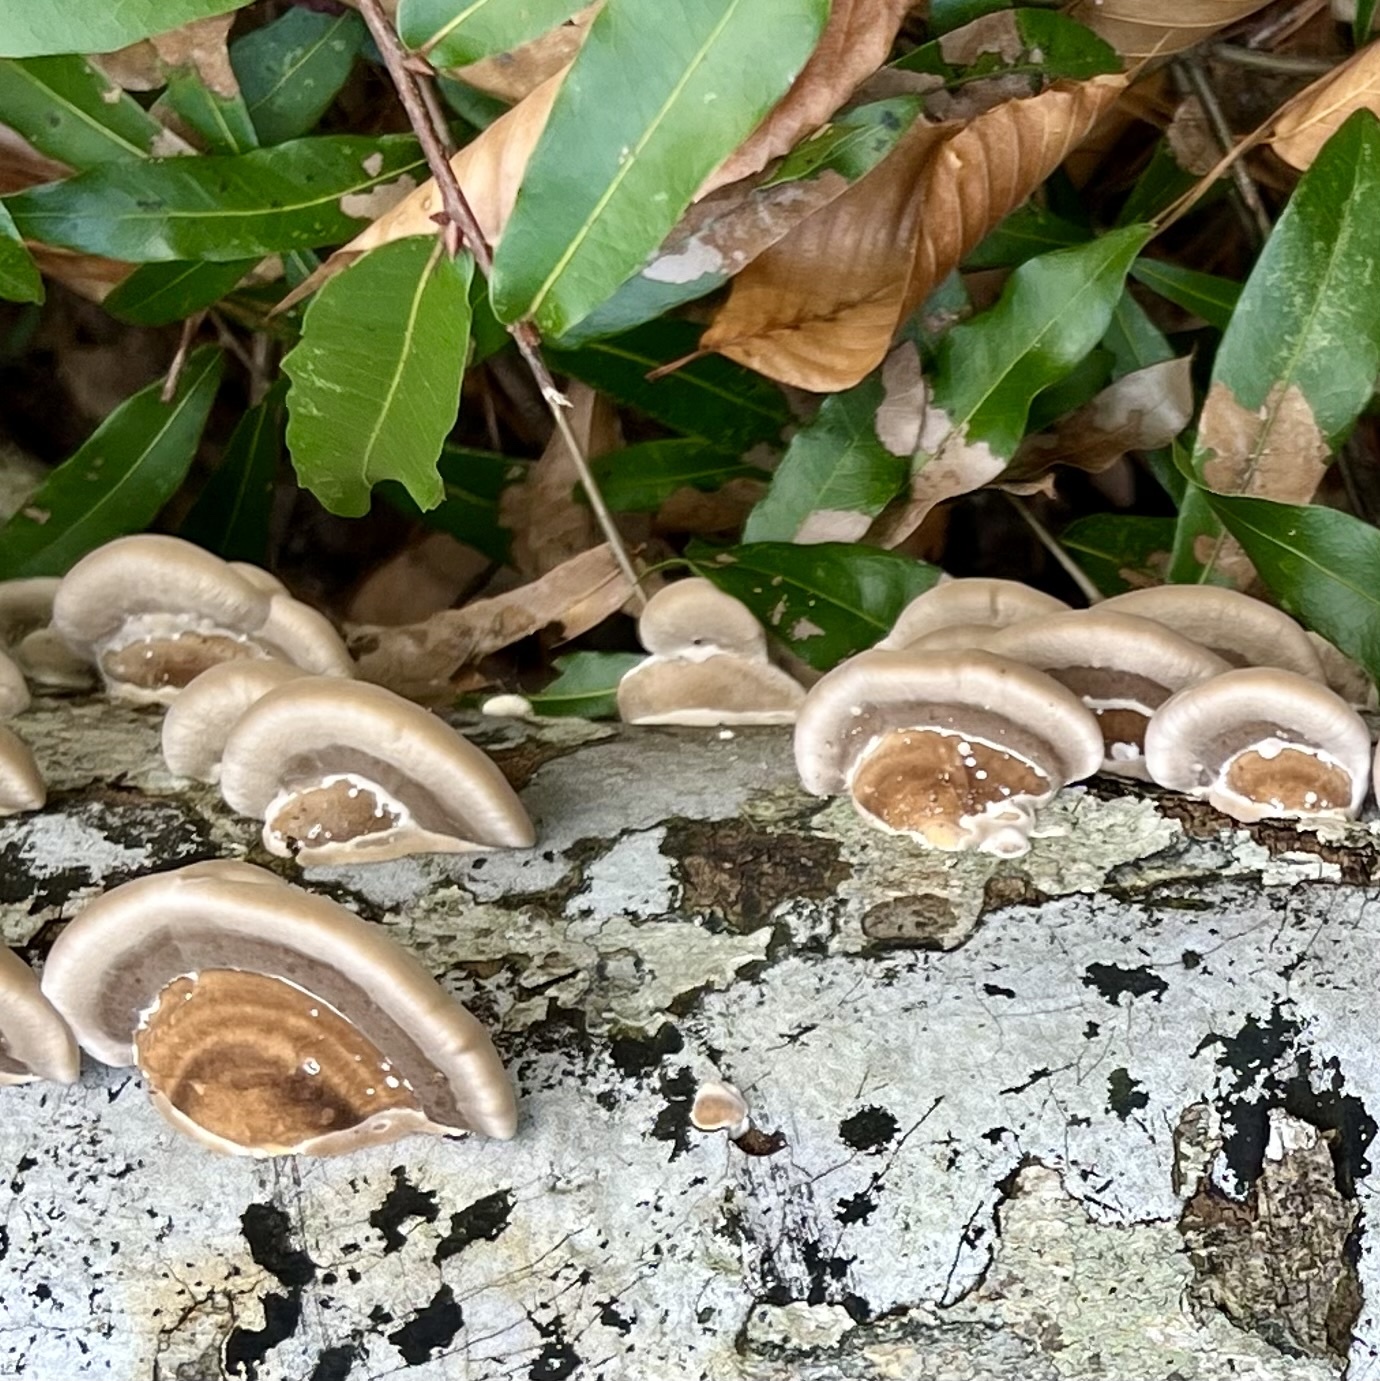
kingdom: Fungi
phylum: Basidiomycota
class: Agaricomycetes
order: Polyporales
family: Polyporaceae
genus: Trametes
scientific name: Trametes lactinea
